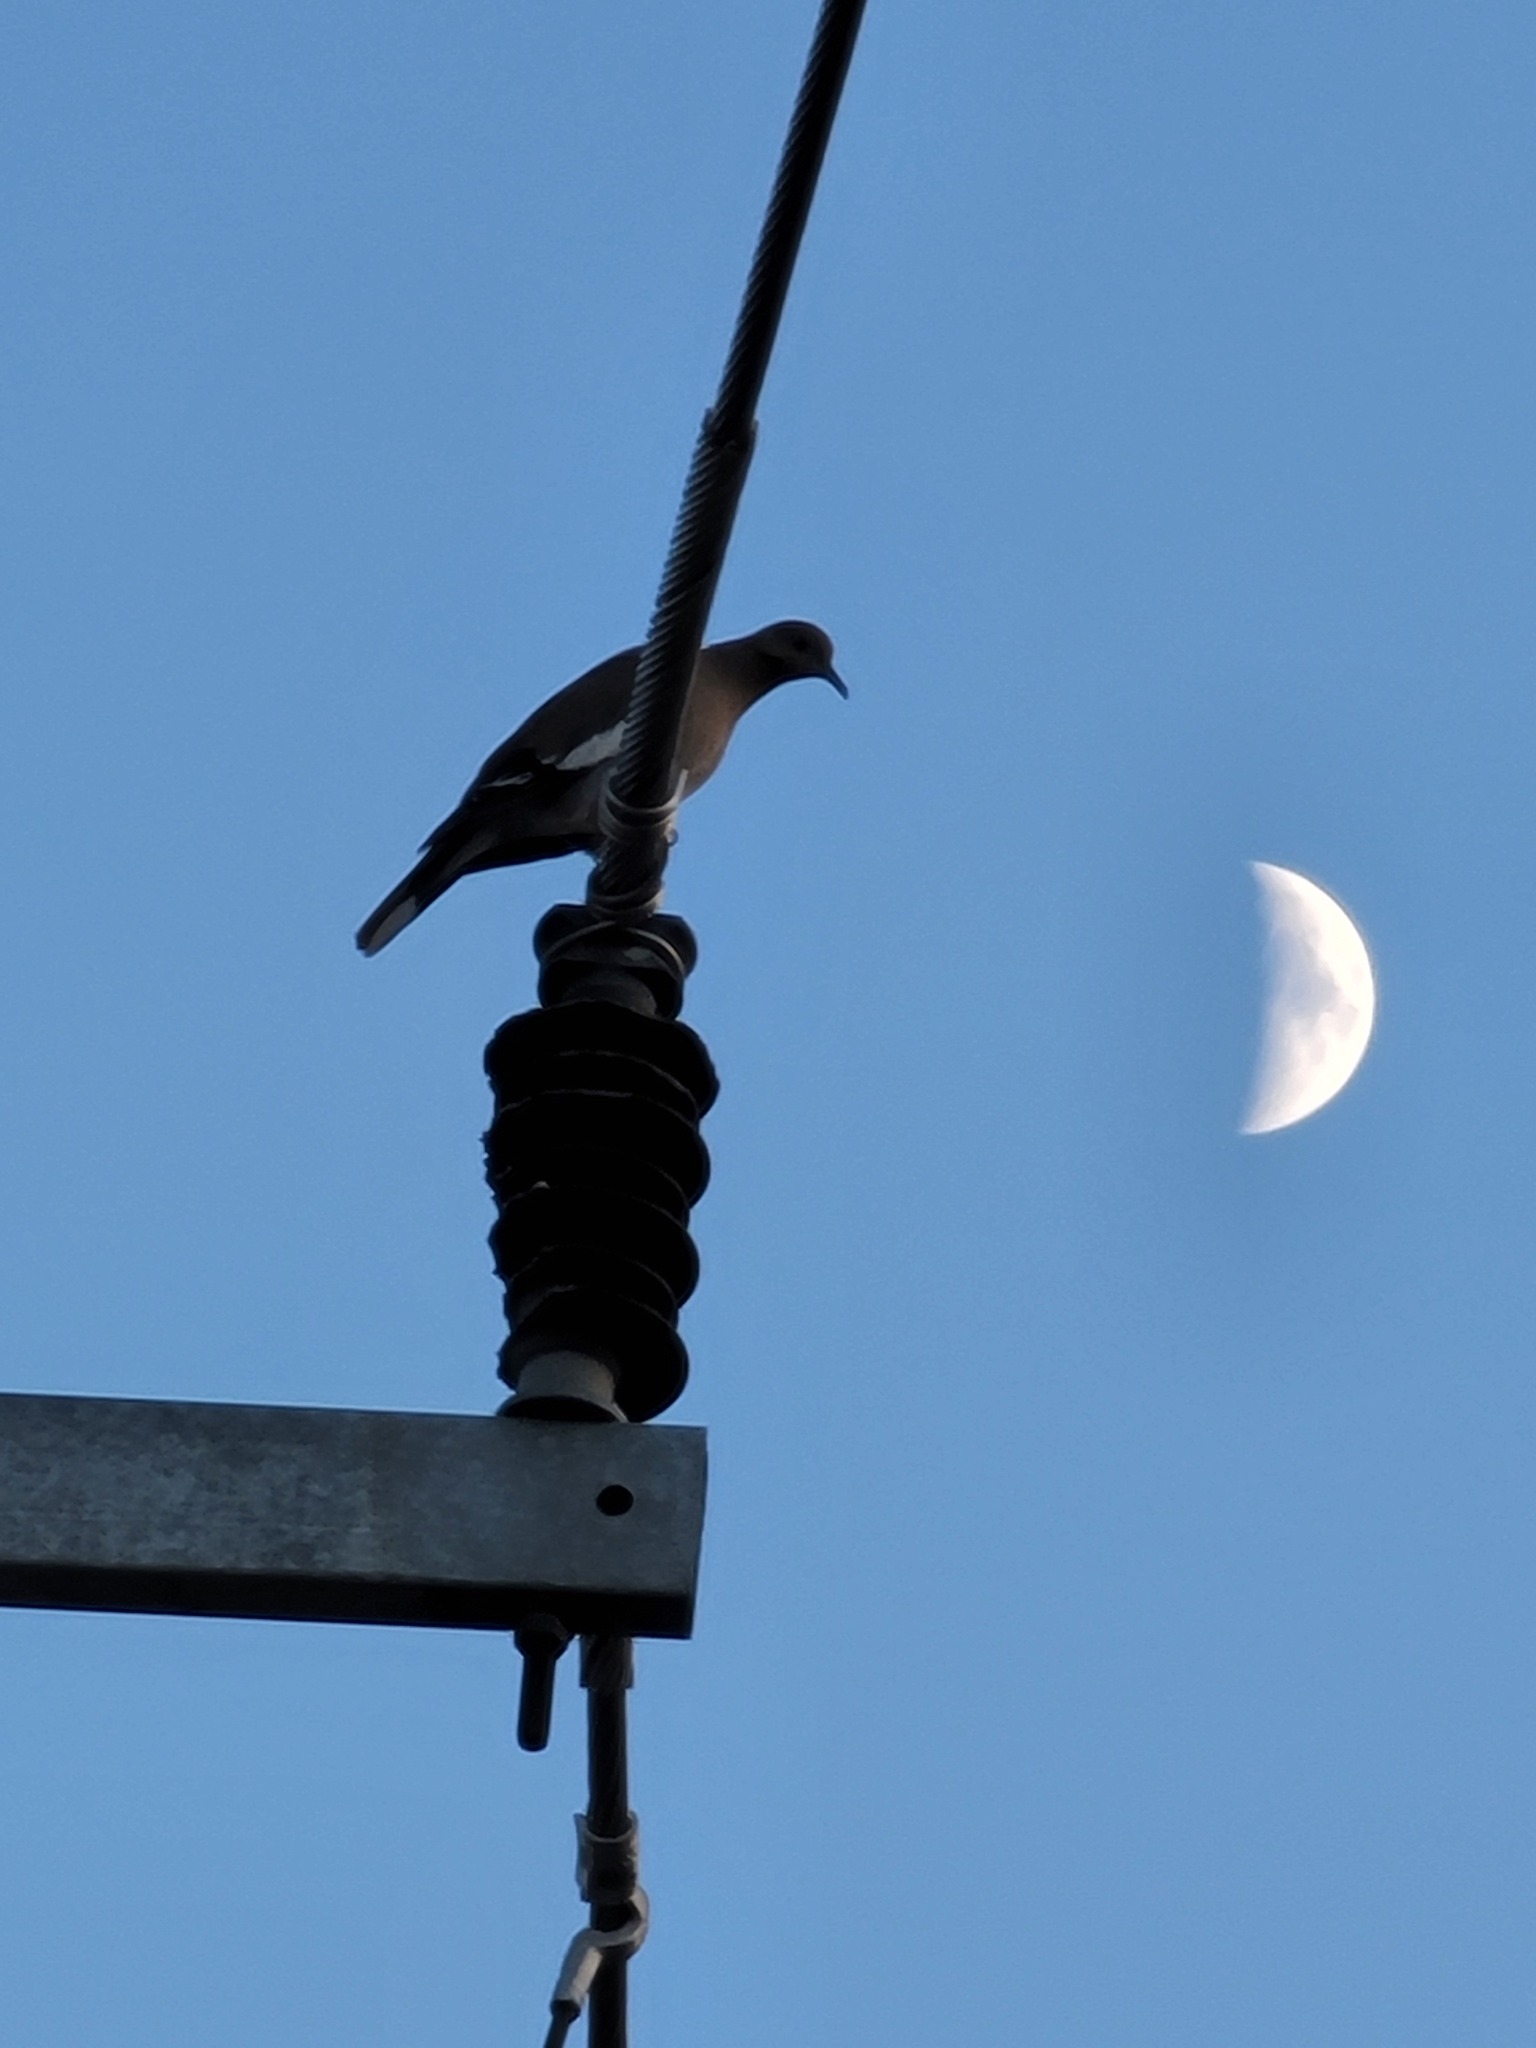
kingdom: Animalia
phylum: Chordata
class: Aves
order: Columbiformes
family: Columbidae
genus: Zenaida
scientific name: Zenaida asiatica
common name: White-winged dove
